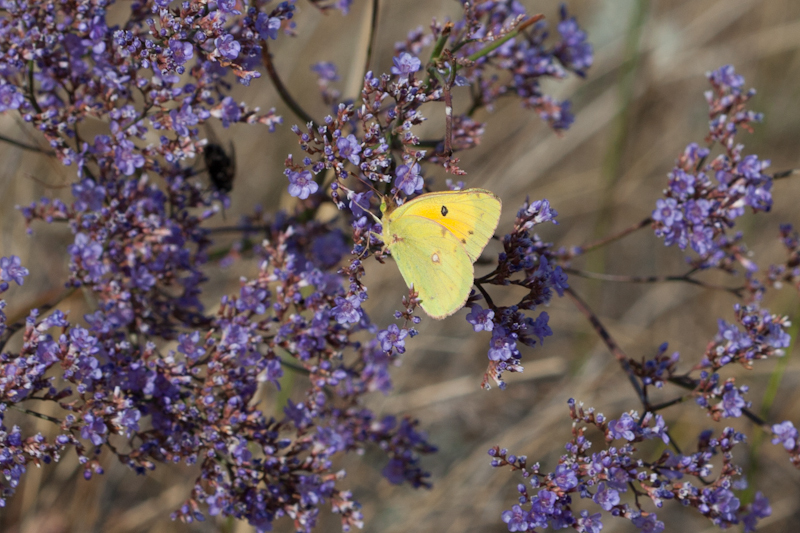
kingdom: Animalia
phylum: Arthropoda
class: Insecta
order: Lepidoptera
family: Pieridae
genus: Colias
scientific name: Colias chrysotheme
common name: Lesser clouded yellow
